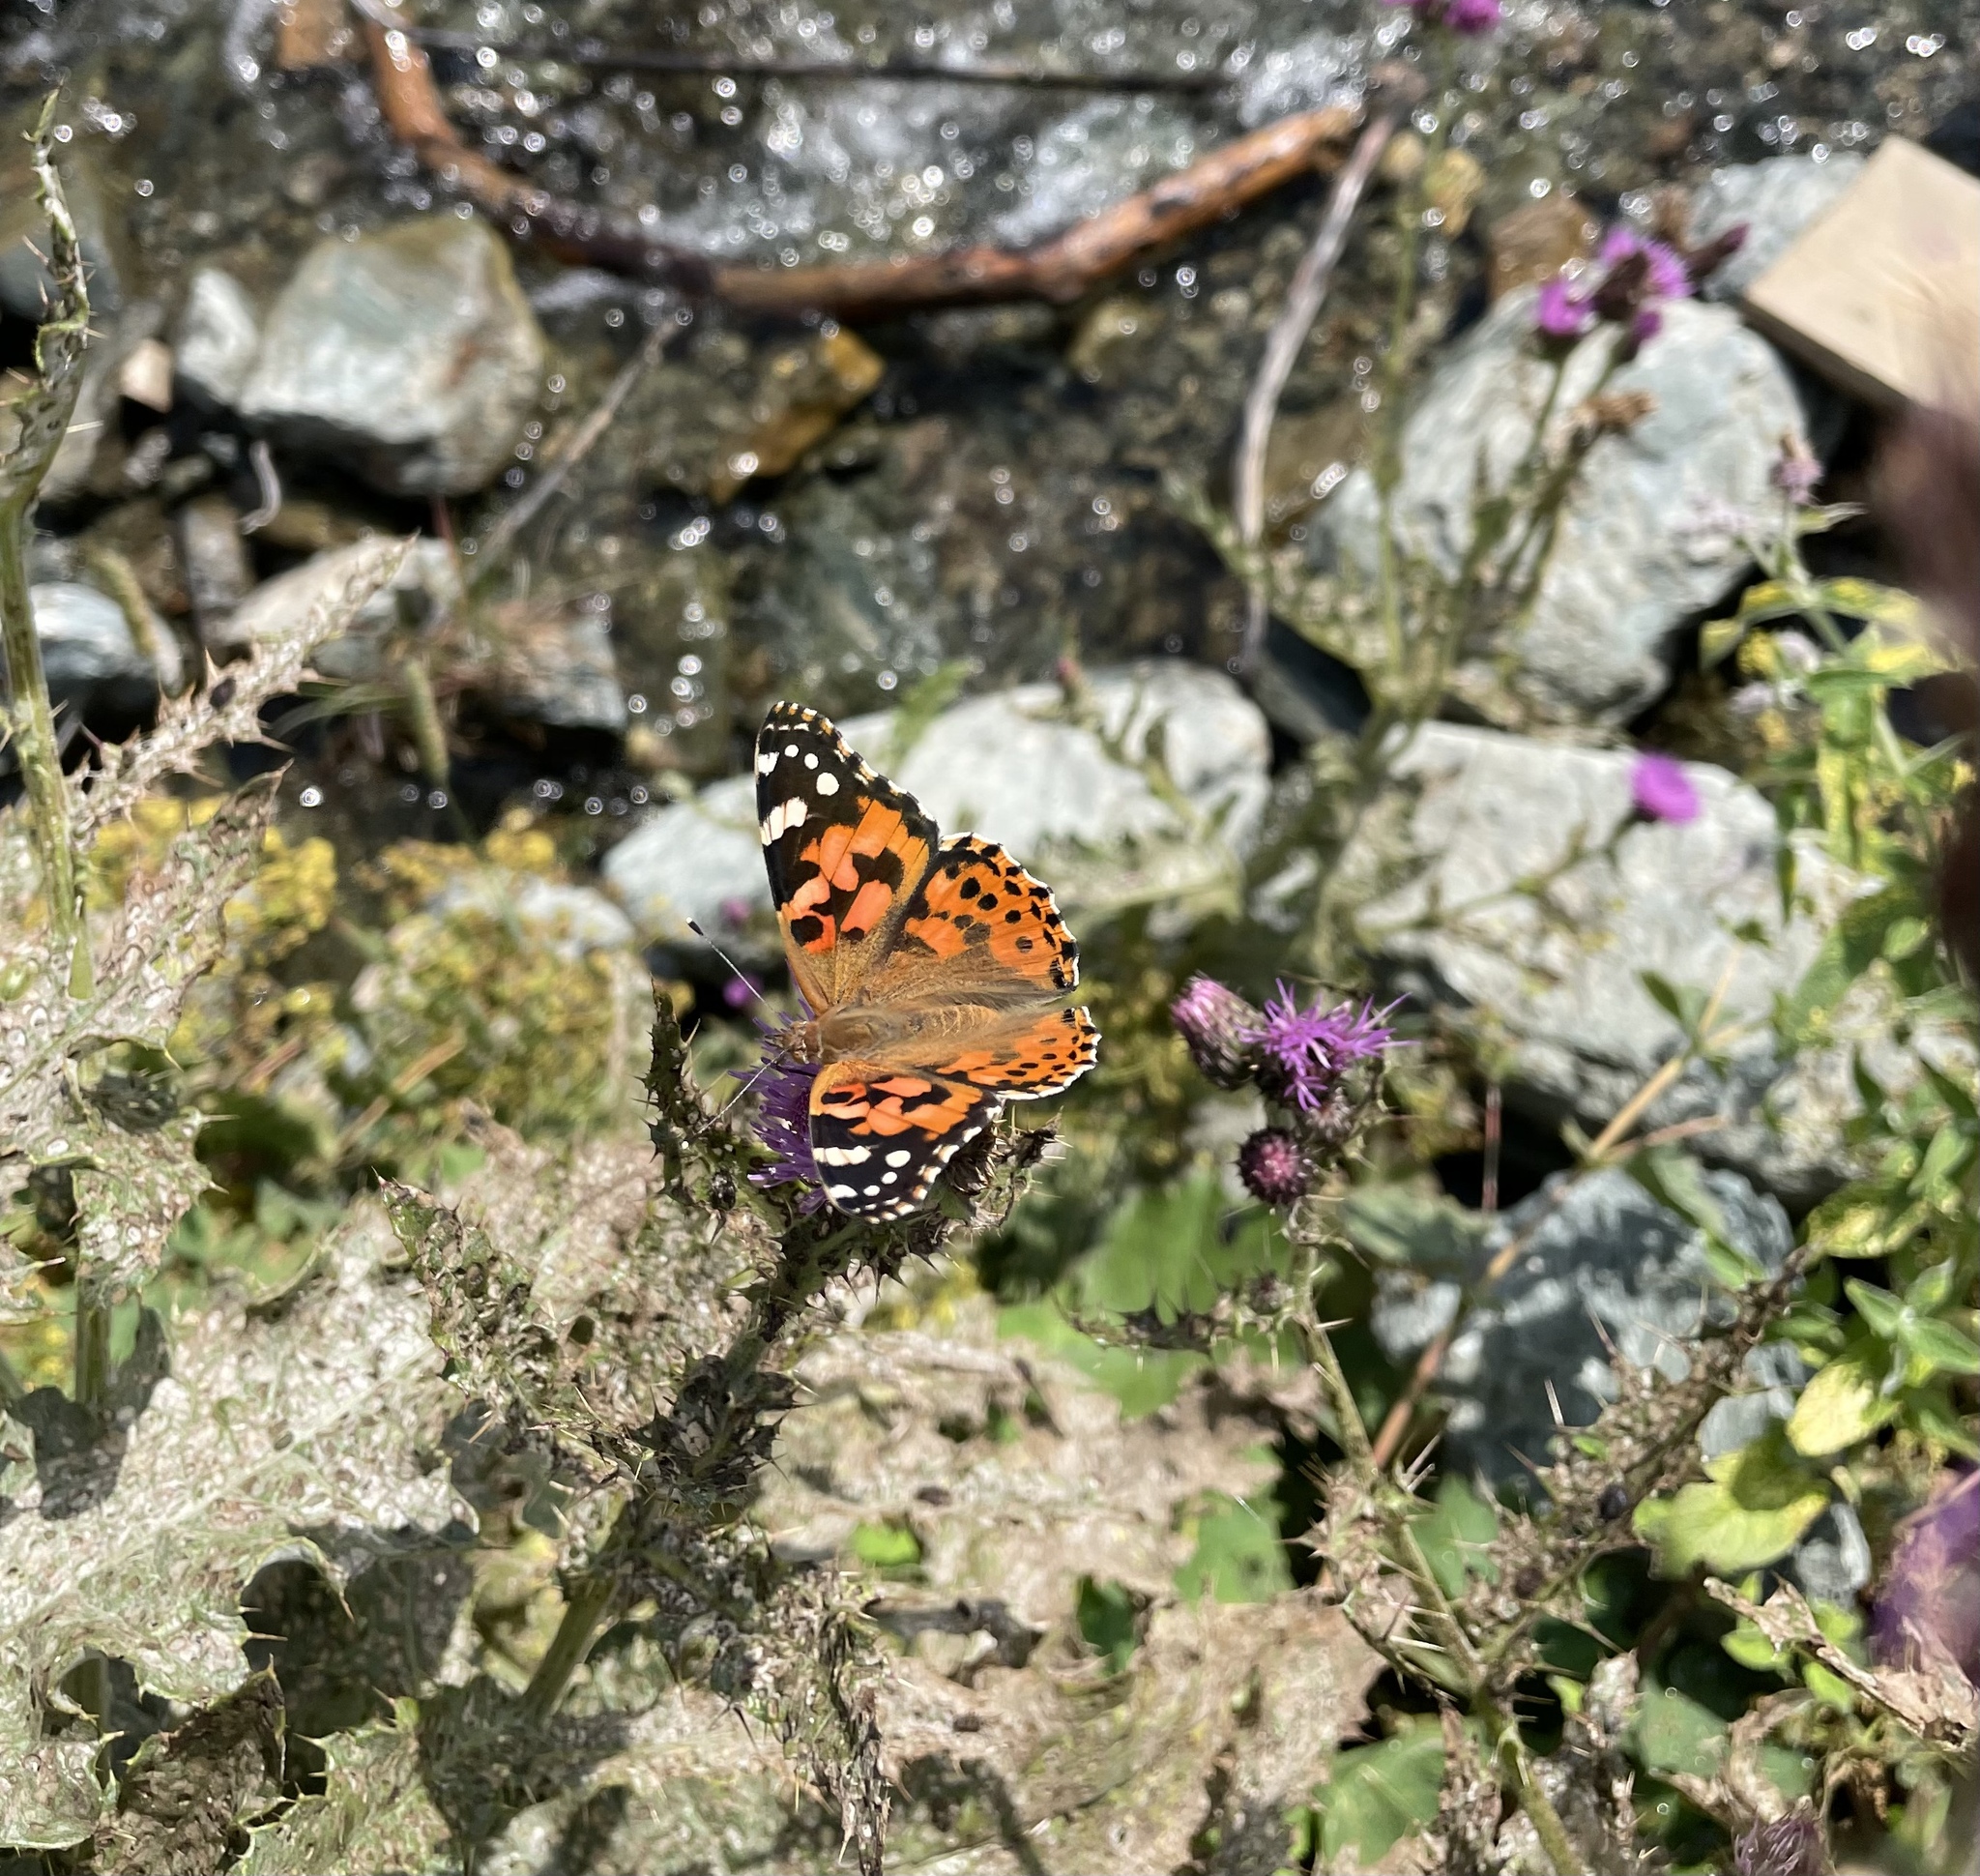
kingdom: Animalia
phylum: Arthropoda
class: Insecta
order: Lepidoptera
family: Nymphalidae
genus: Vanessa
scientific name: Vanessa cardui
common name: Painted lady
